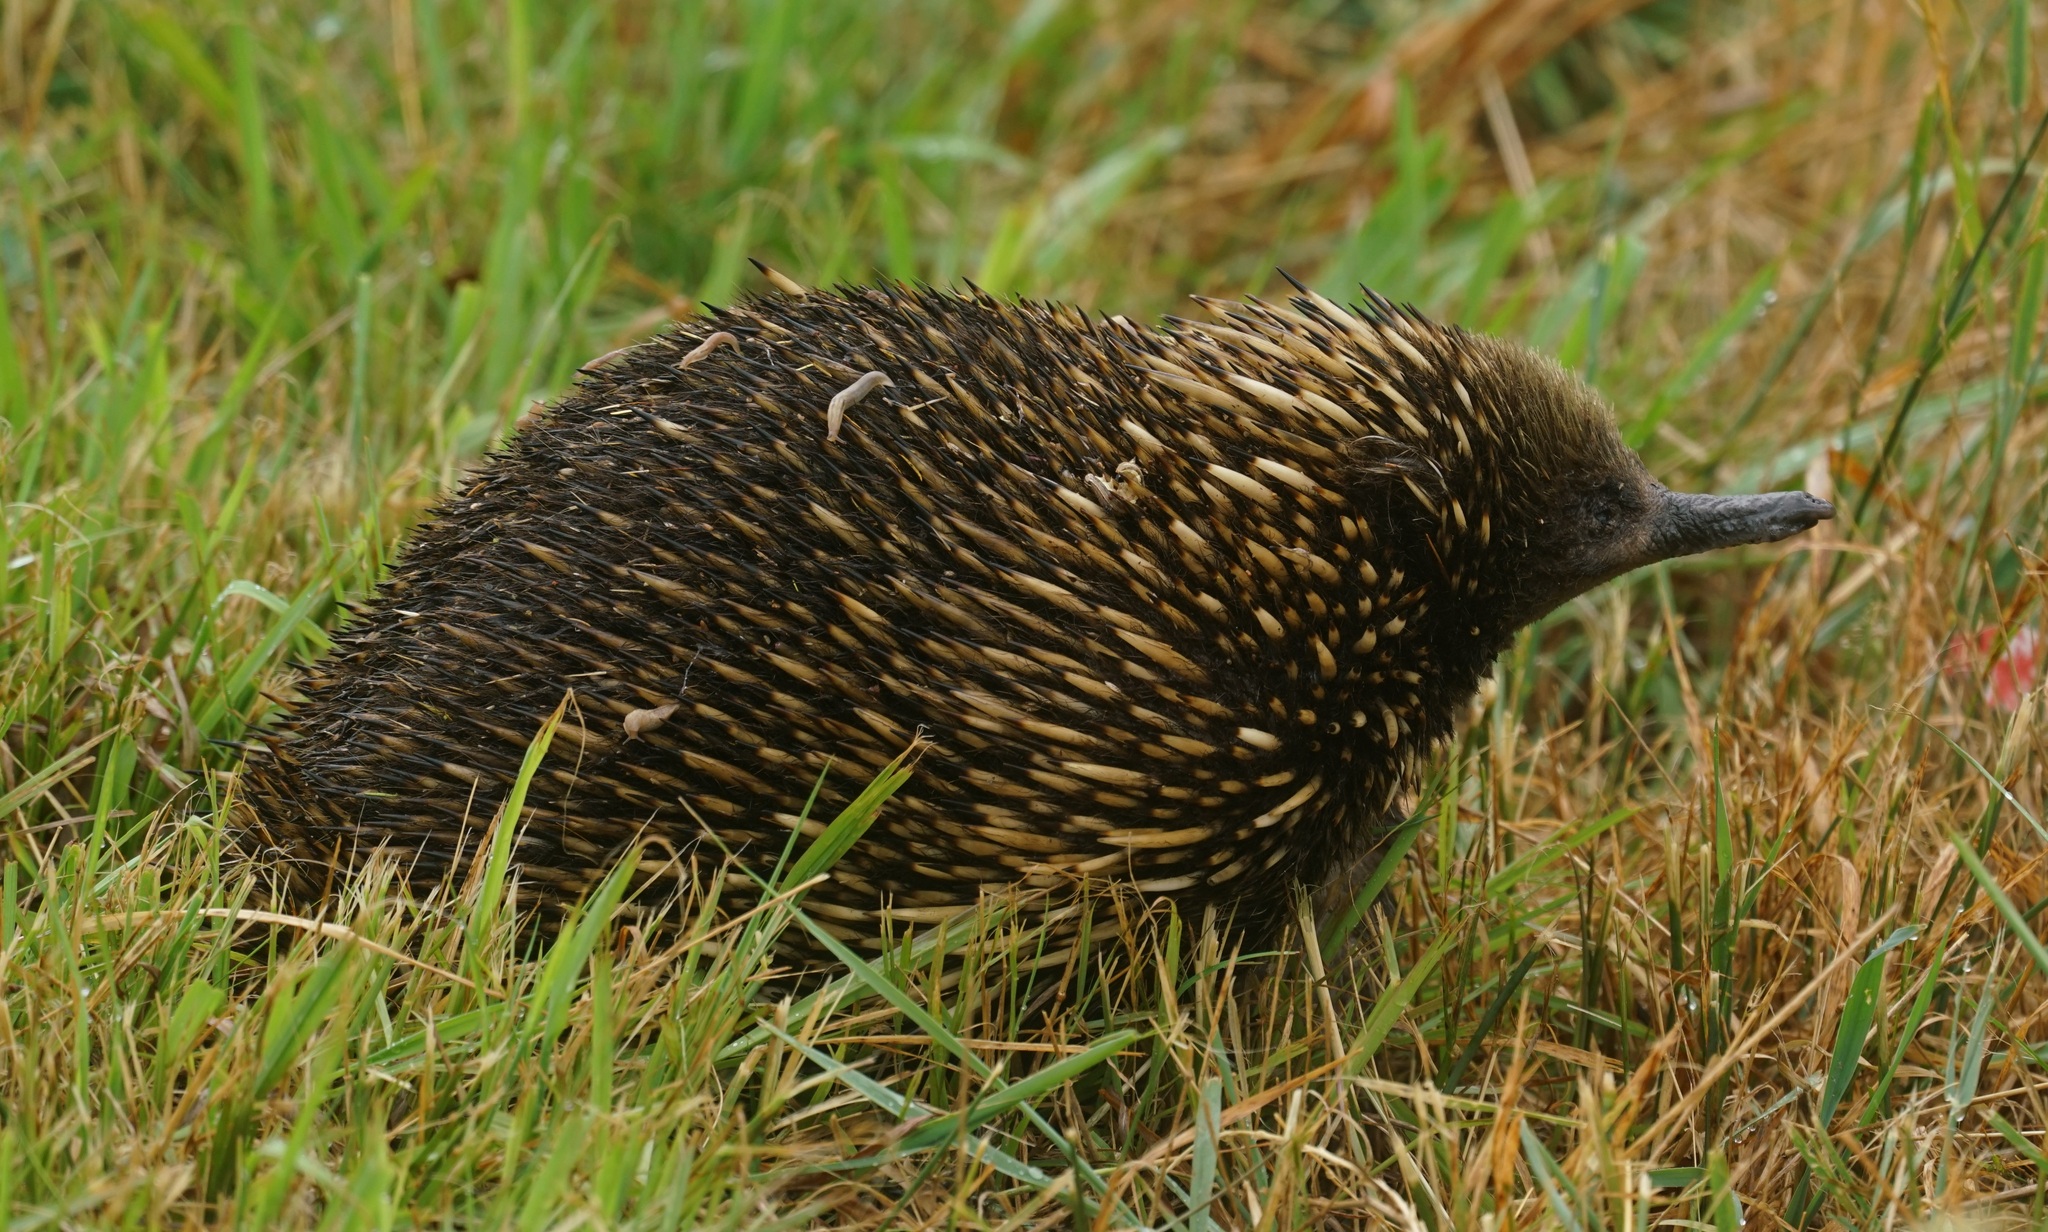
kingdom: Animalia
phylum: Chordata
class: Mammalia
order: Monotremata
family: Tachyglossidae
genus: Tachyglossus
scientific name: Tachyglossus aculeatus
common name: Short-beaked echidna
